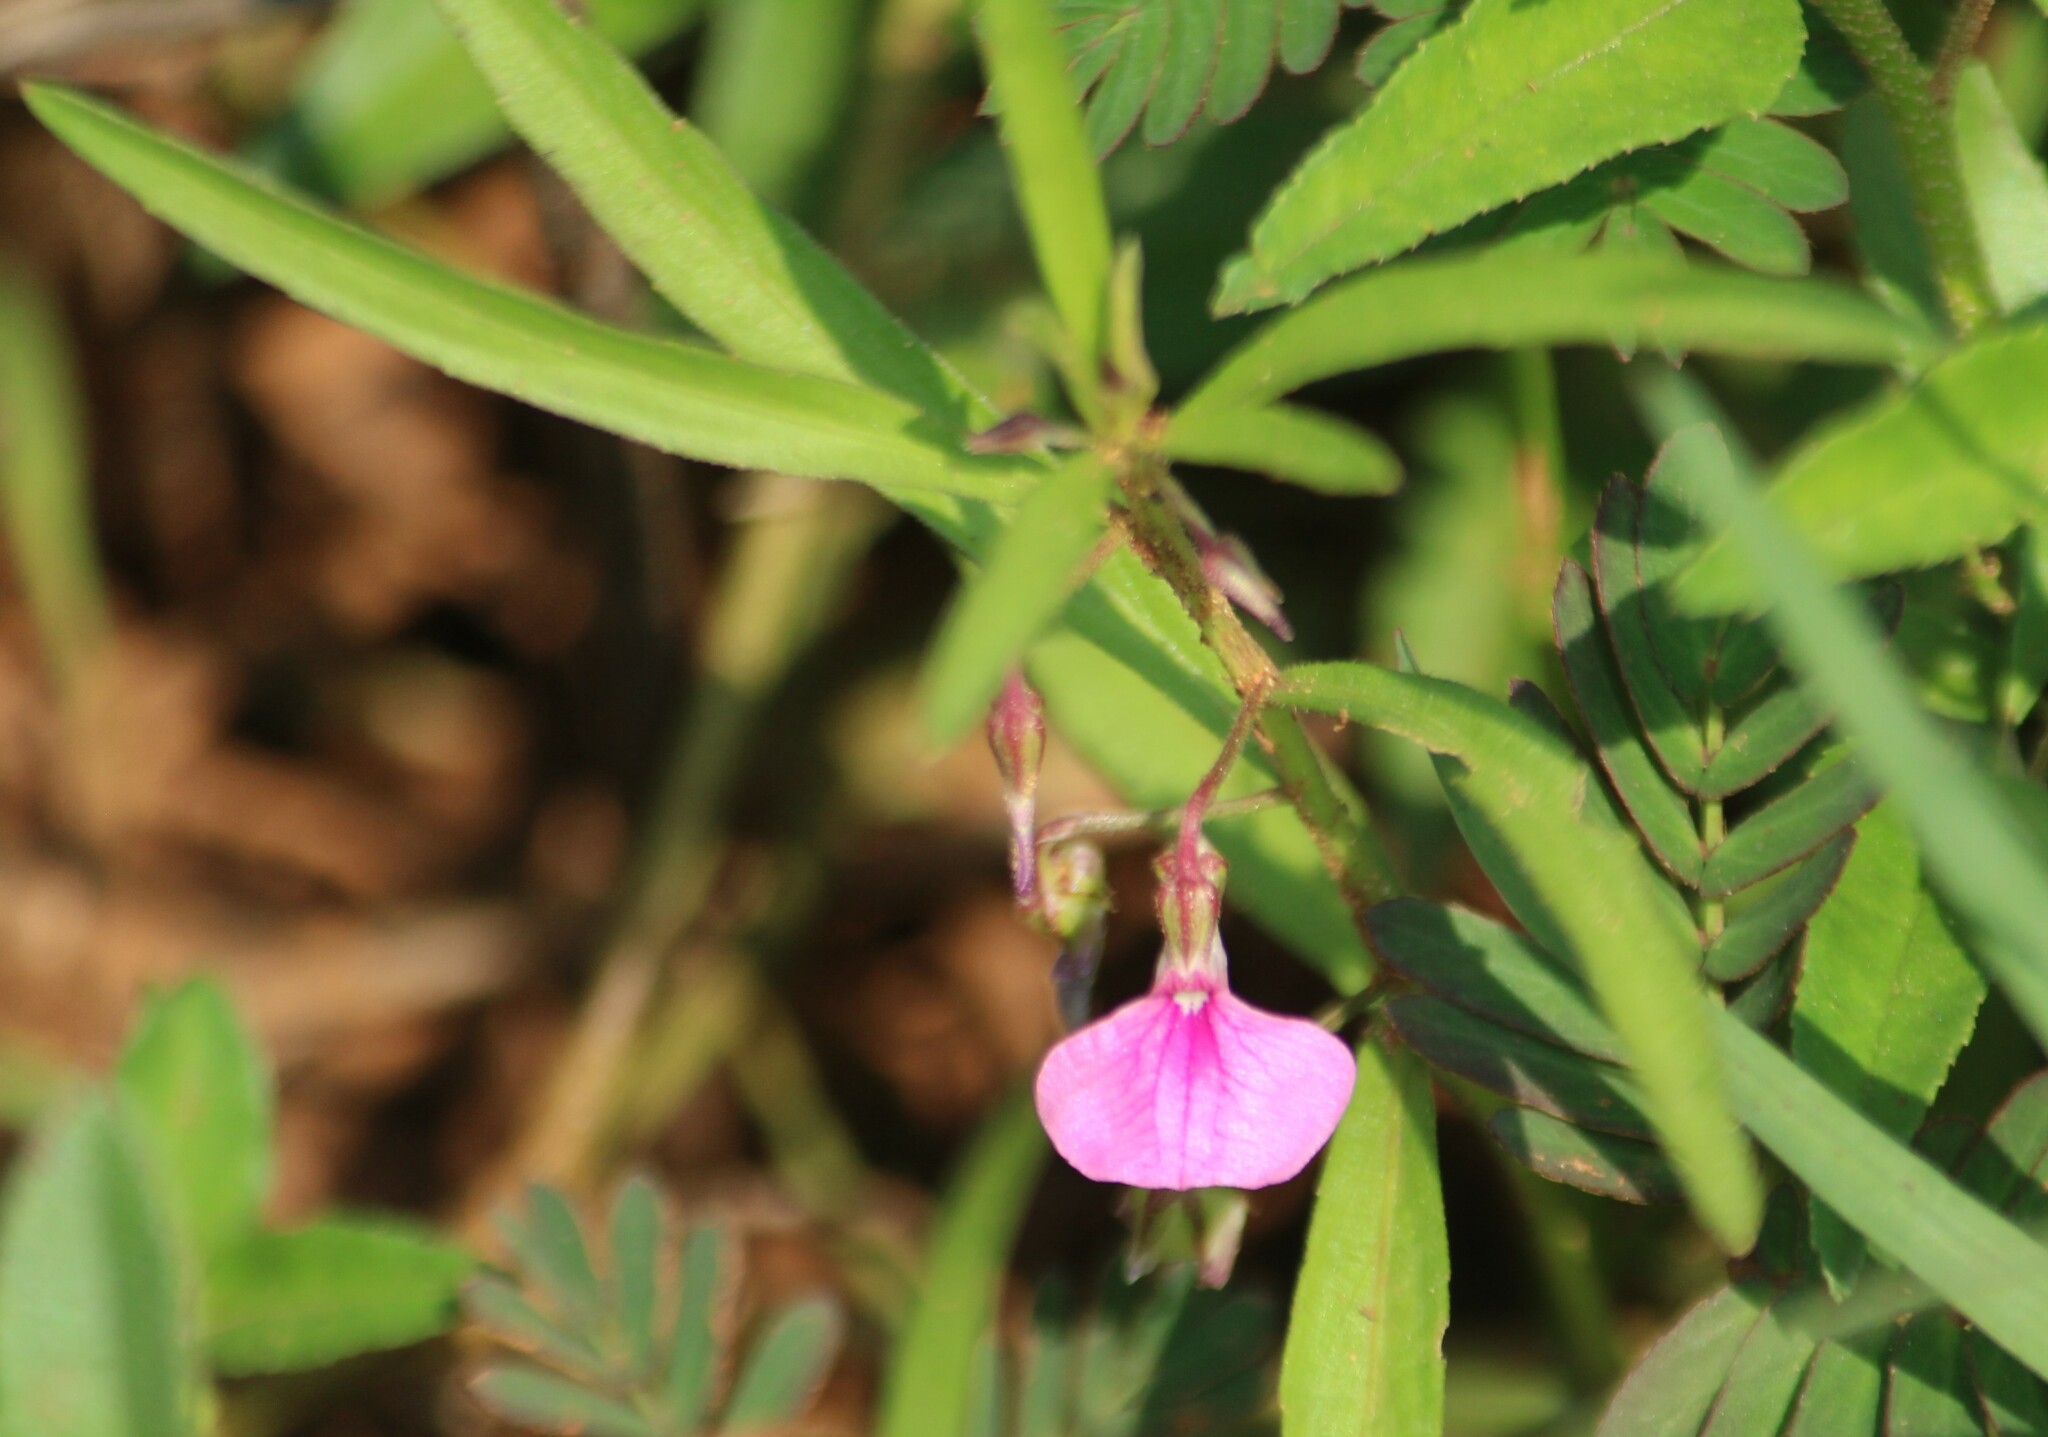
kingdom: Plantae
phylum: Tracheophyta
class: Magnoliopsida
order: Malpighiales
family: Violaceae
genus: Pigea
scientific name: Pigea enneasperma
